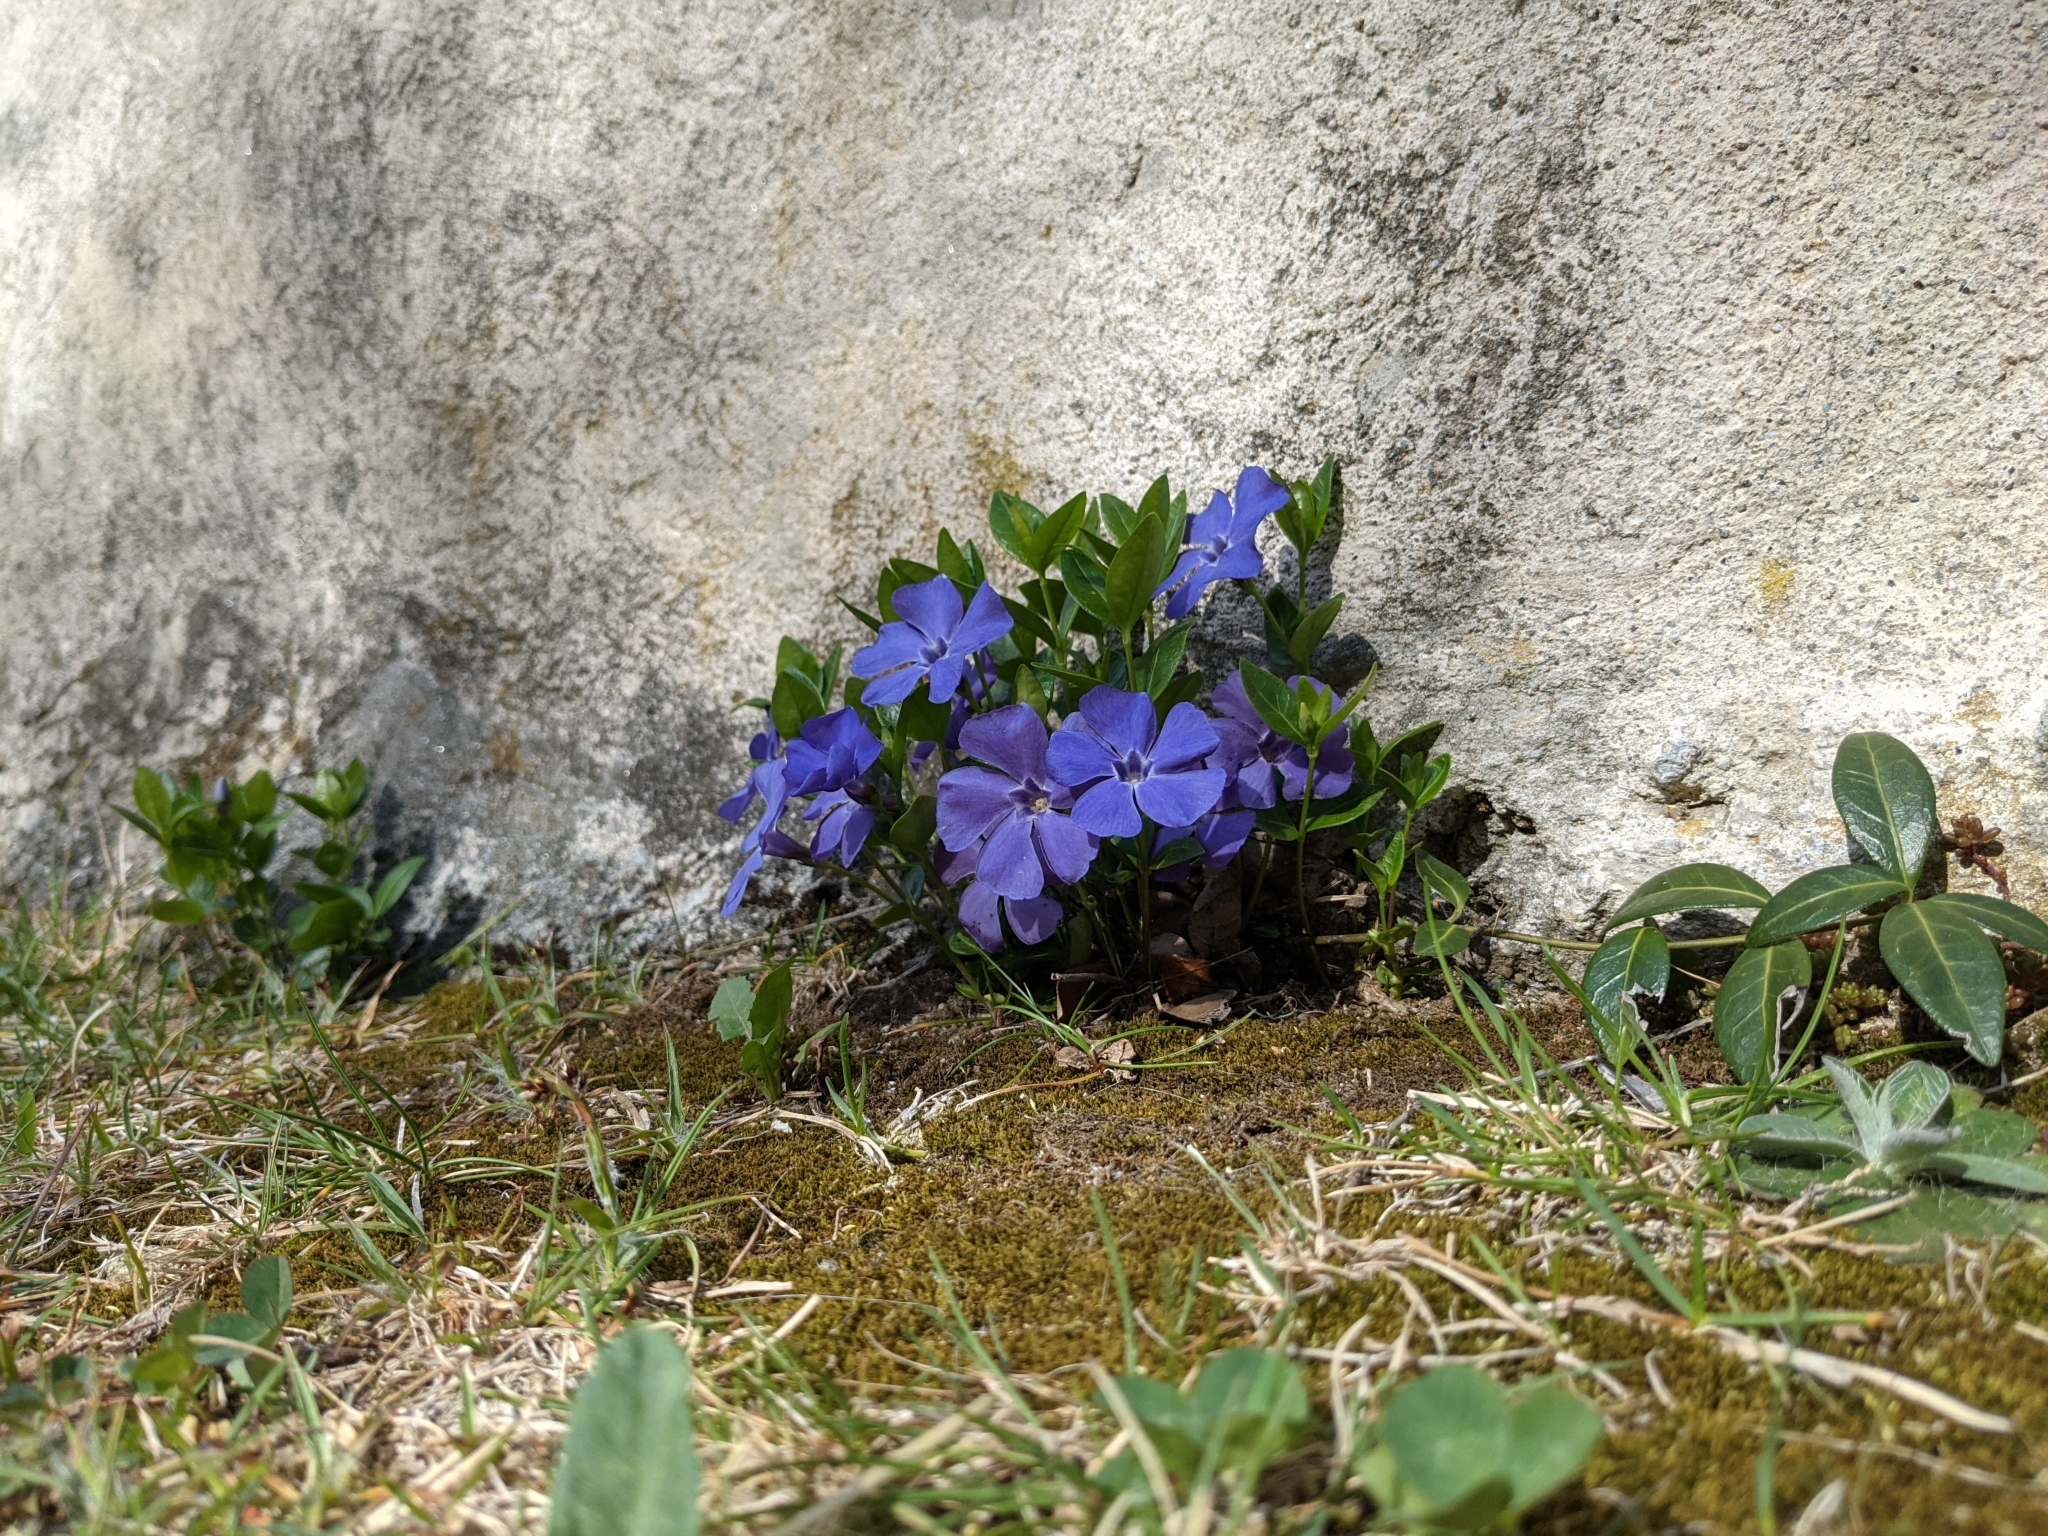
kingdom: Plantae
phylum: Tracheophyta
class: Magnoliopsida
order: Gentianales
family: Apocynaceae
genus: Vinca
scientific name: Vinca minor
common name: Lesser periwinkle
